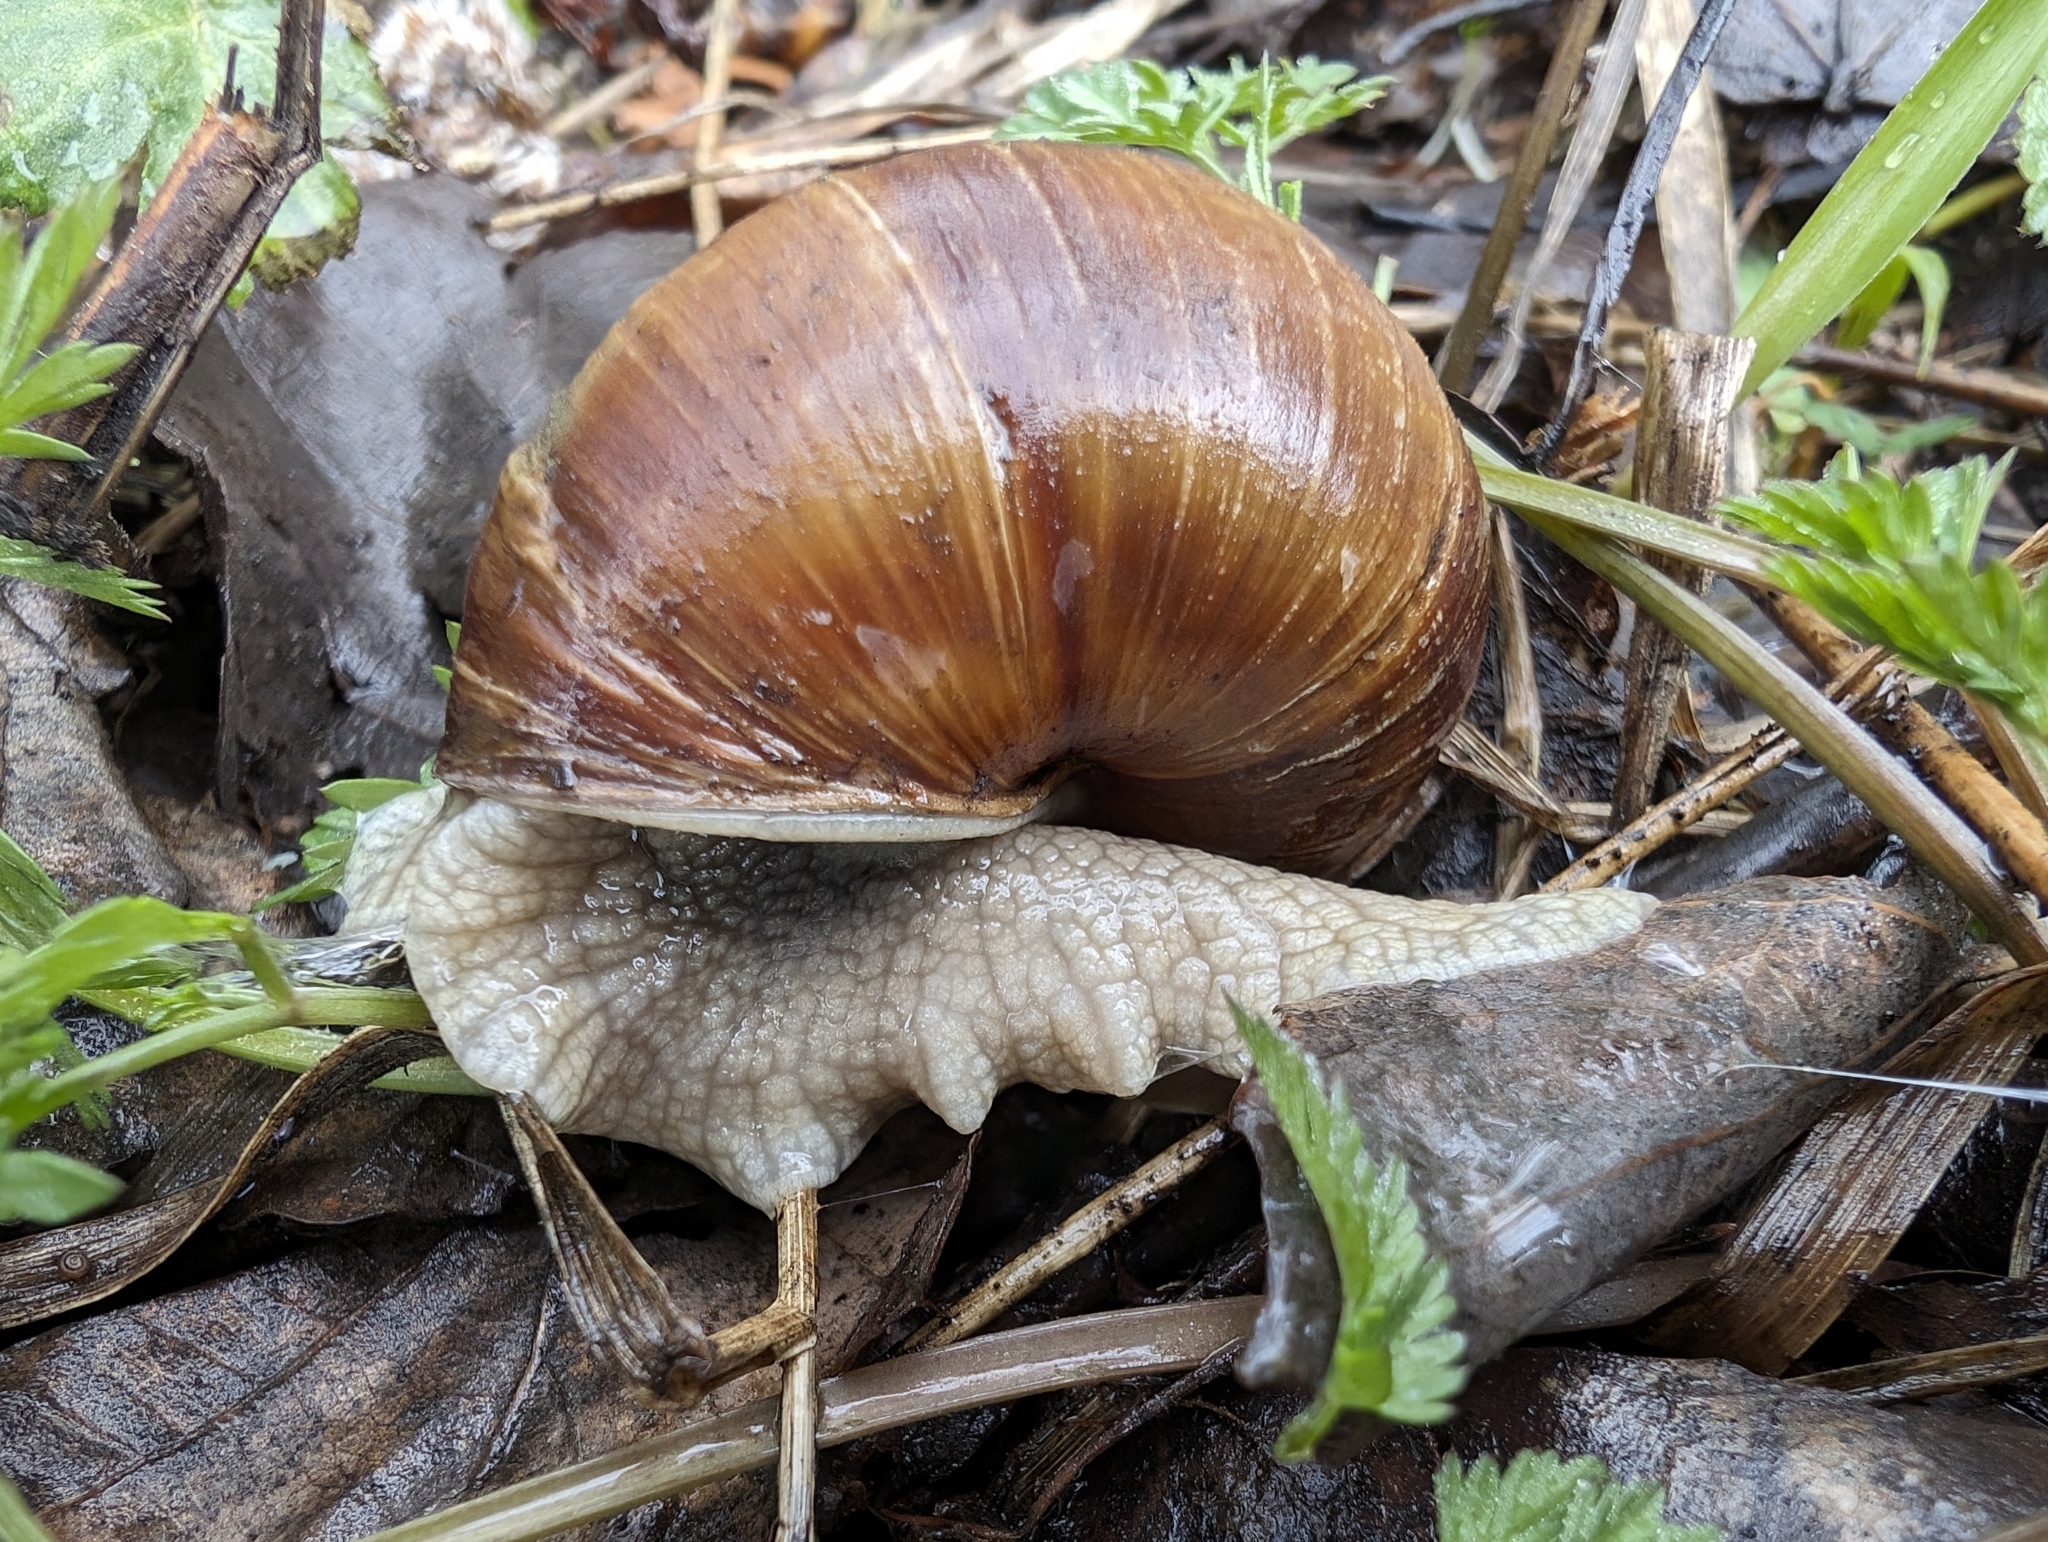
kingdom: Animalia
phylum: Mollusca
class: Gastropoda
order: Stylommatophora
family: Helicidae
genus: Helix
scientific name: Helix pomatia
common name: Roman snail
